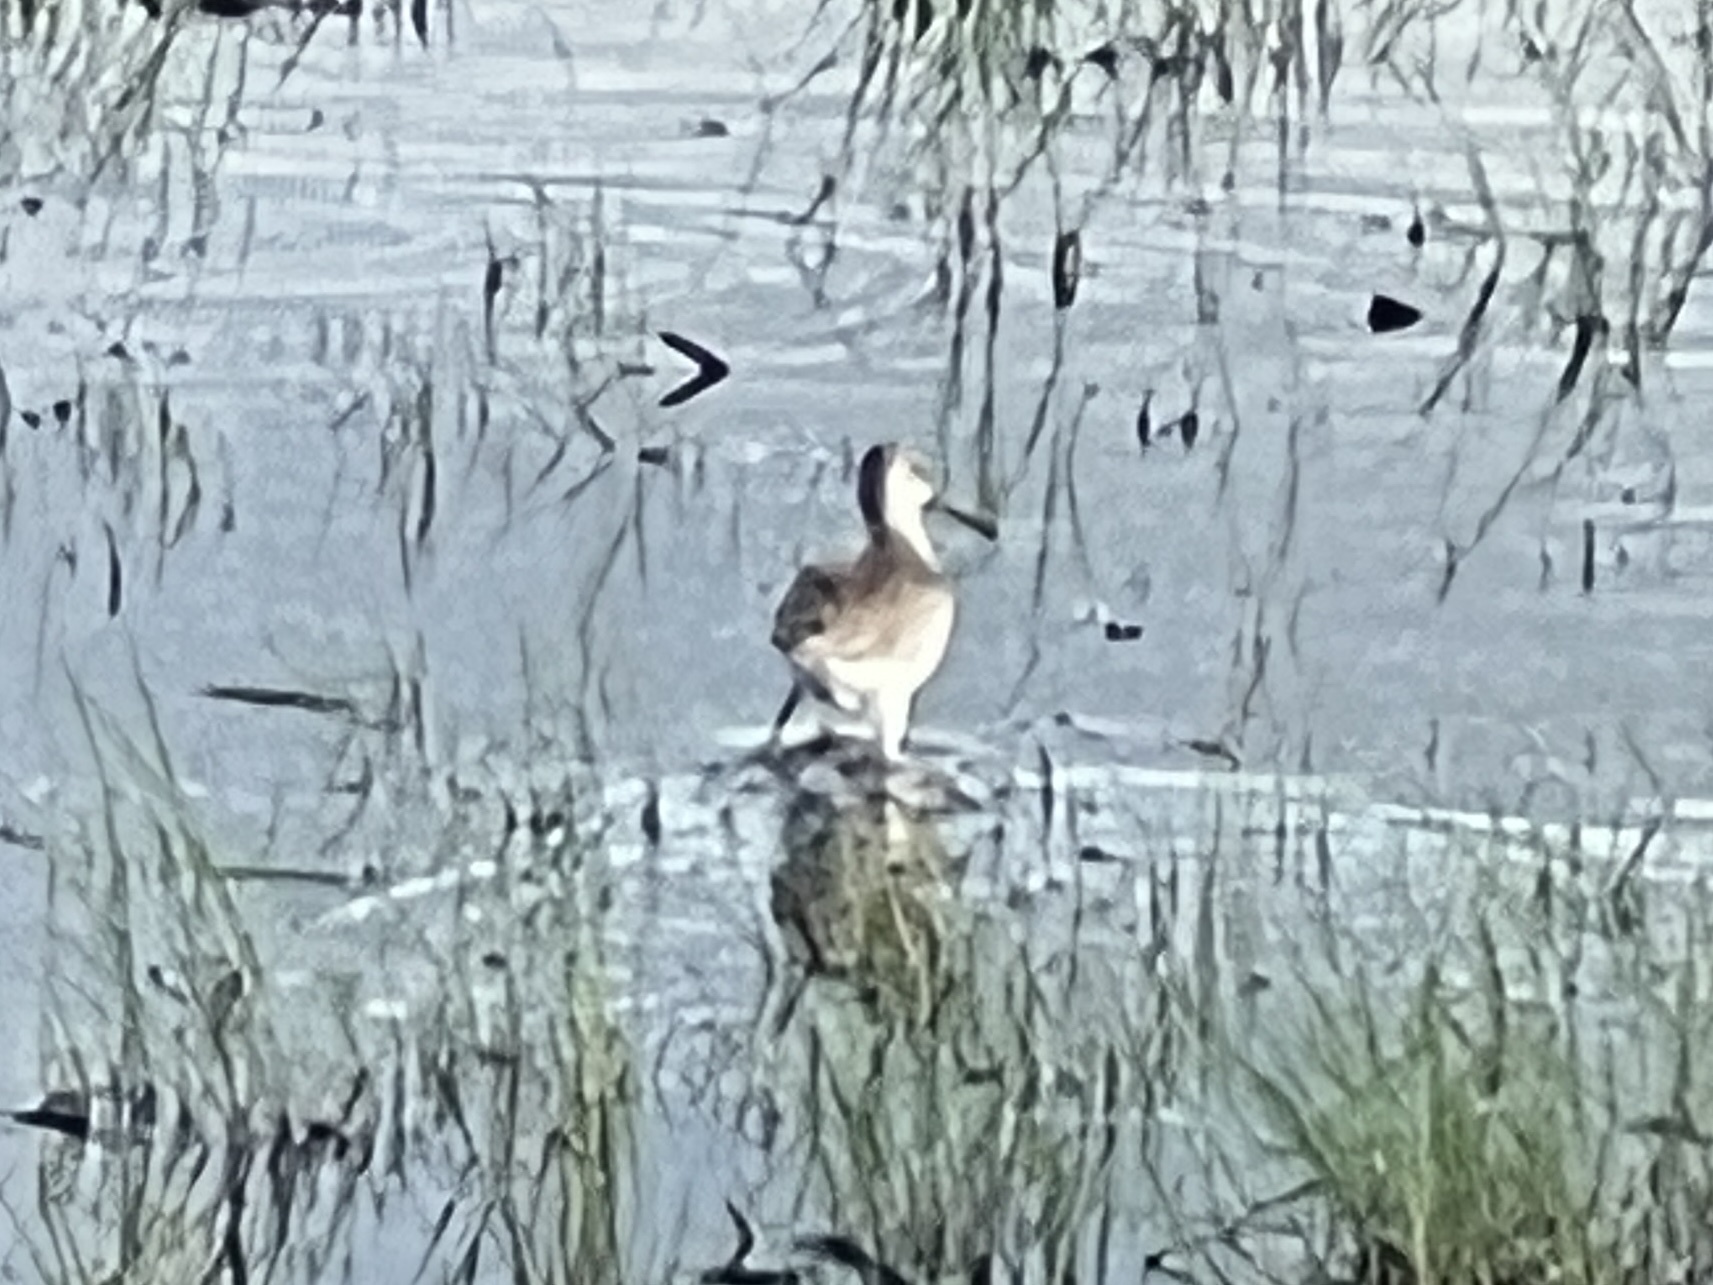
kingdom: Animalia
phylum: Chordata
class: Aves
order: Charadriiformes
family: Scolopacidae
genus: Tringa
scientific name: Tringa semipalmata
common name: Willet
